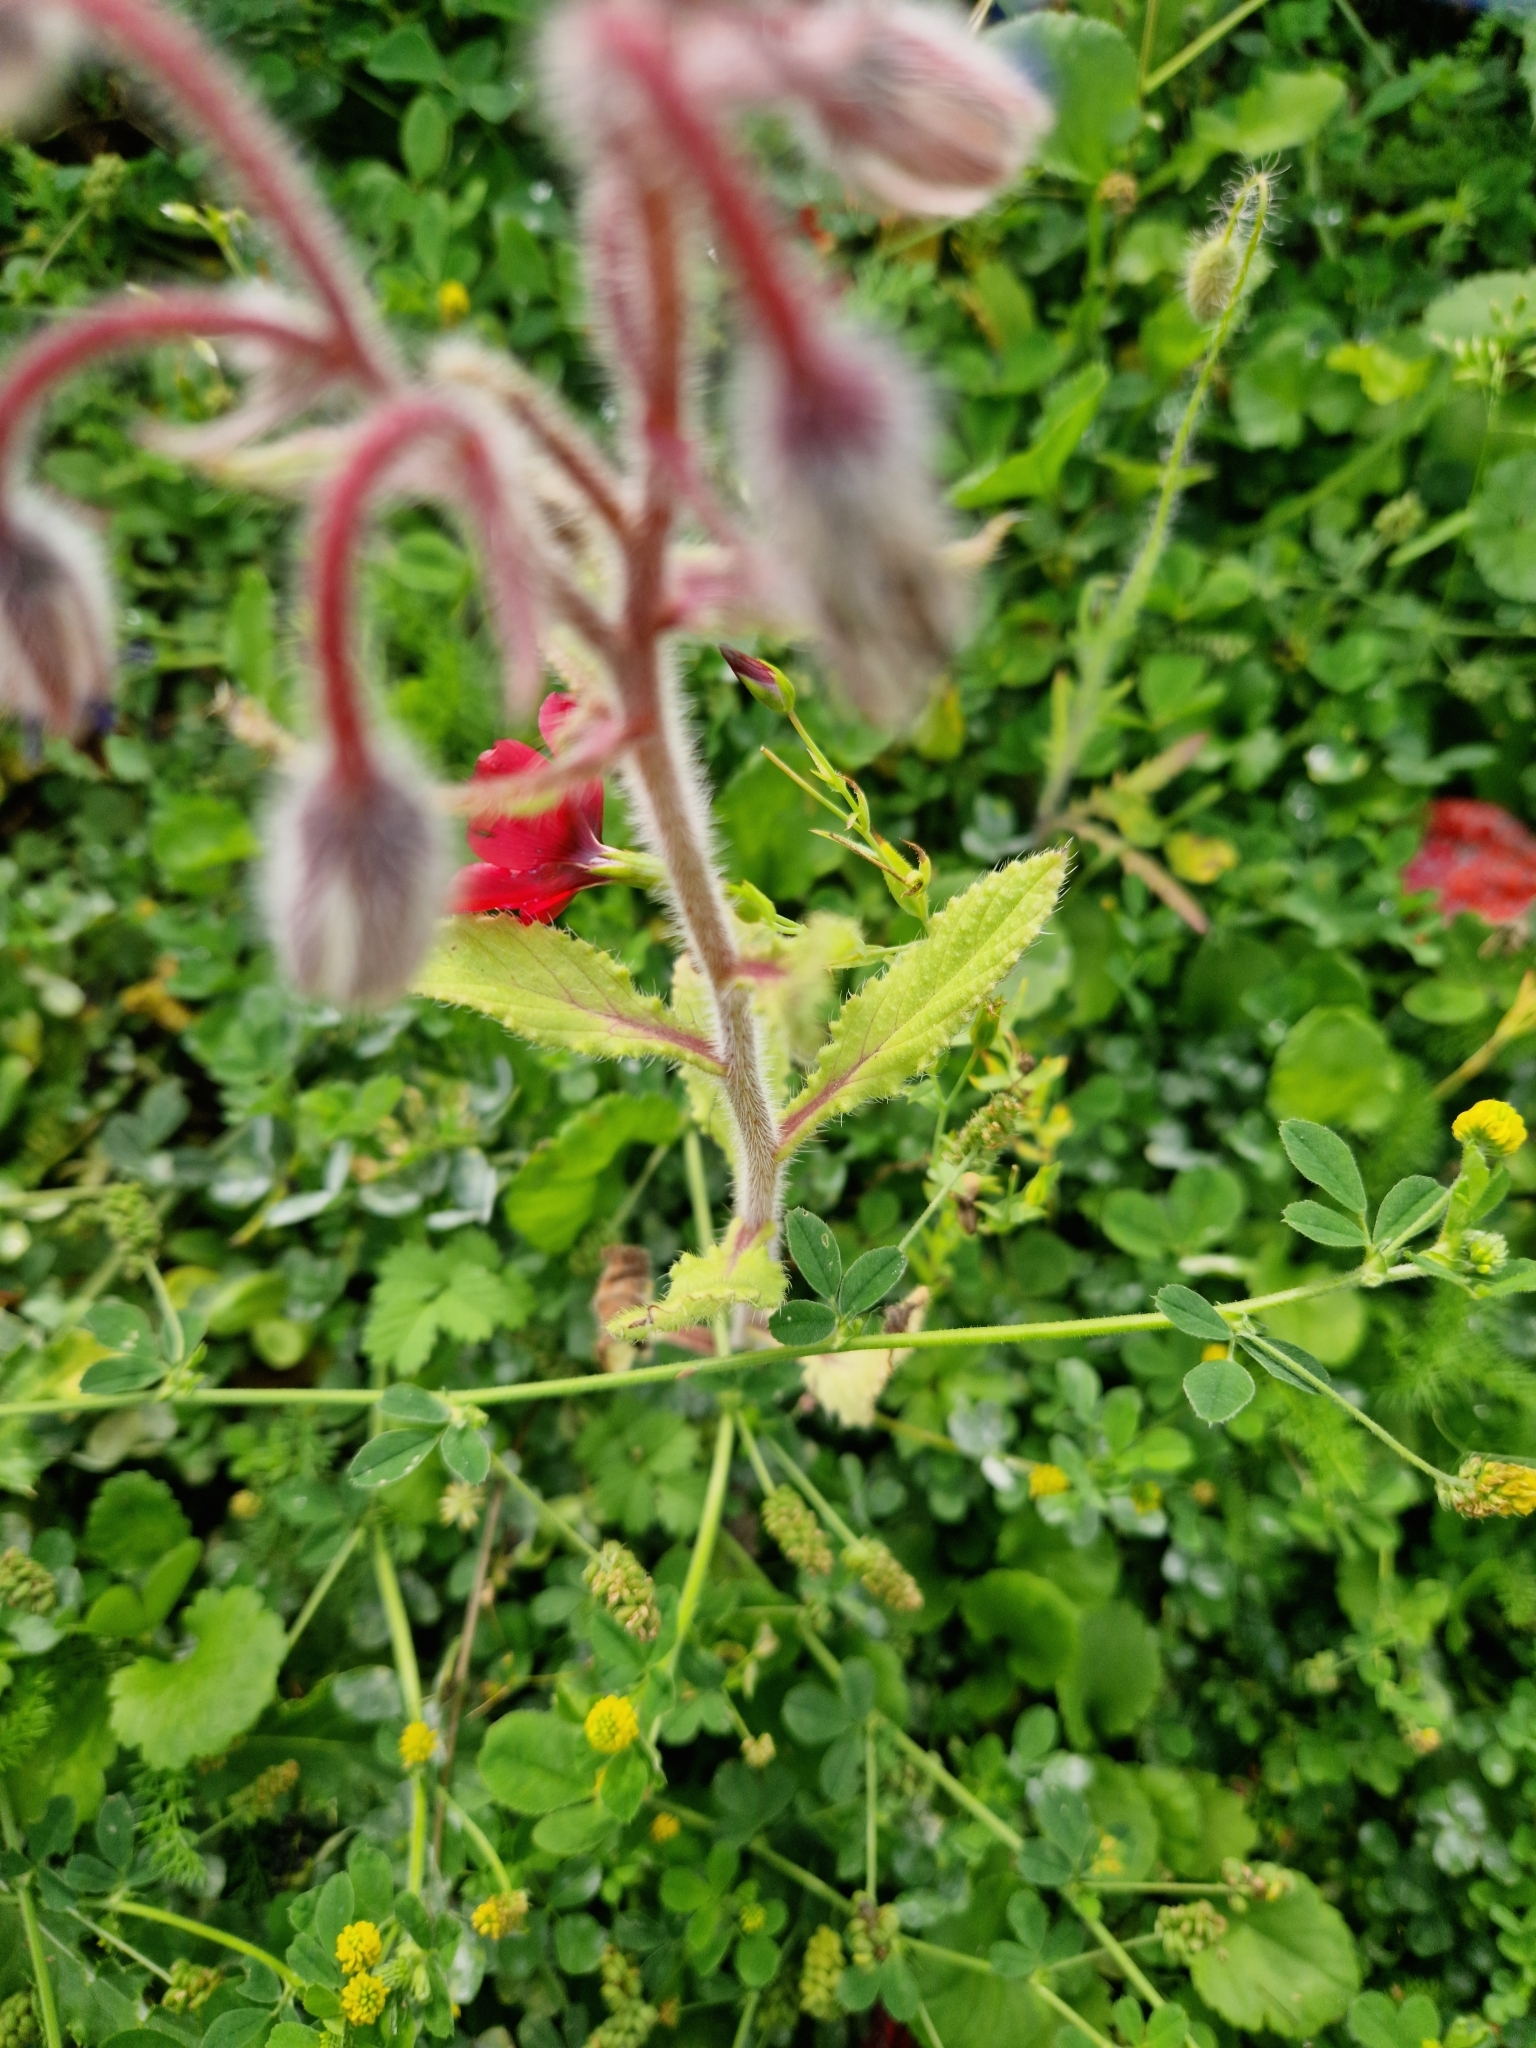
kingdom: Plantae
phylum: Tracheophyta
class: Magnoliopsida
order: Boraginales
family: Boraginaceae
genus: Borago
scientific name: Borago officinalis
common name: Borage
